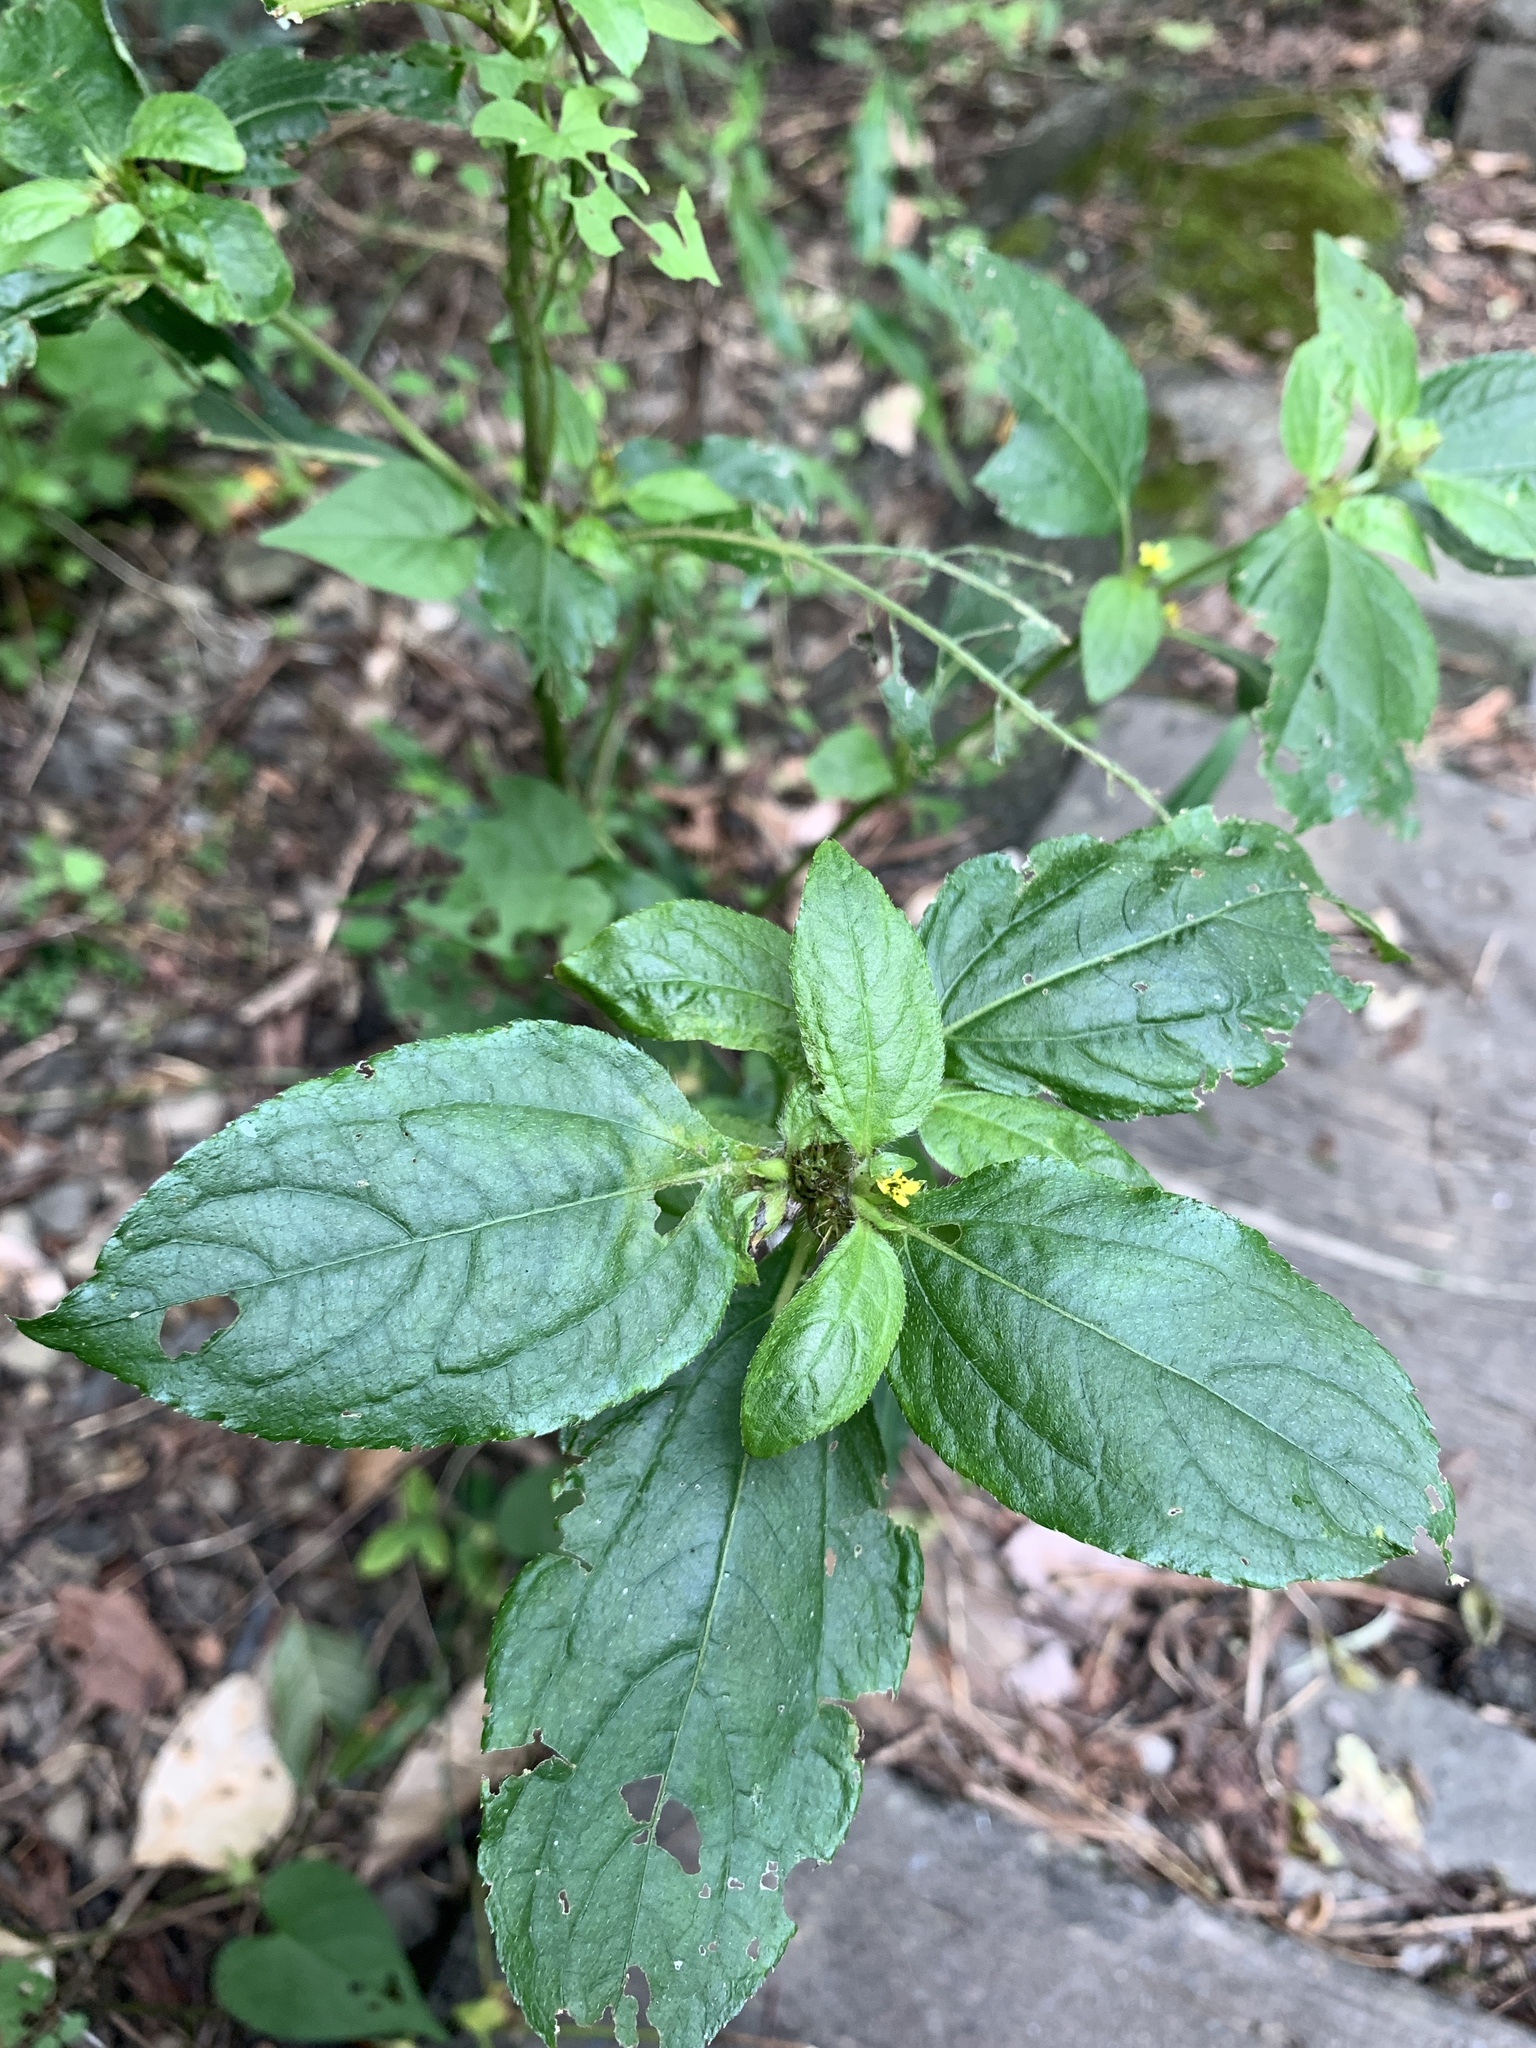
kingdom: Plantae
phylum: Tracheophyta
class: Magnoliopsida
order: Asterales
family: Asteraceae
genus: Synedrella
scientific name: Synedrella nodiflora
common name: Nodeweed
